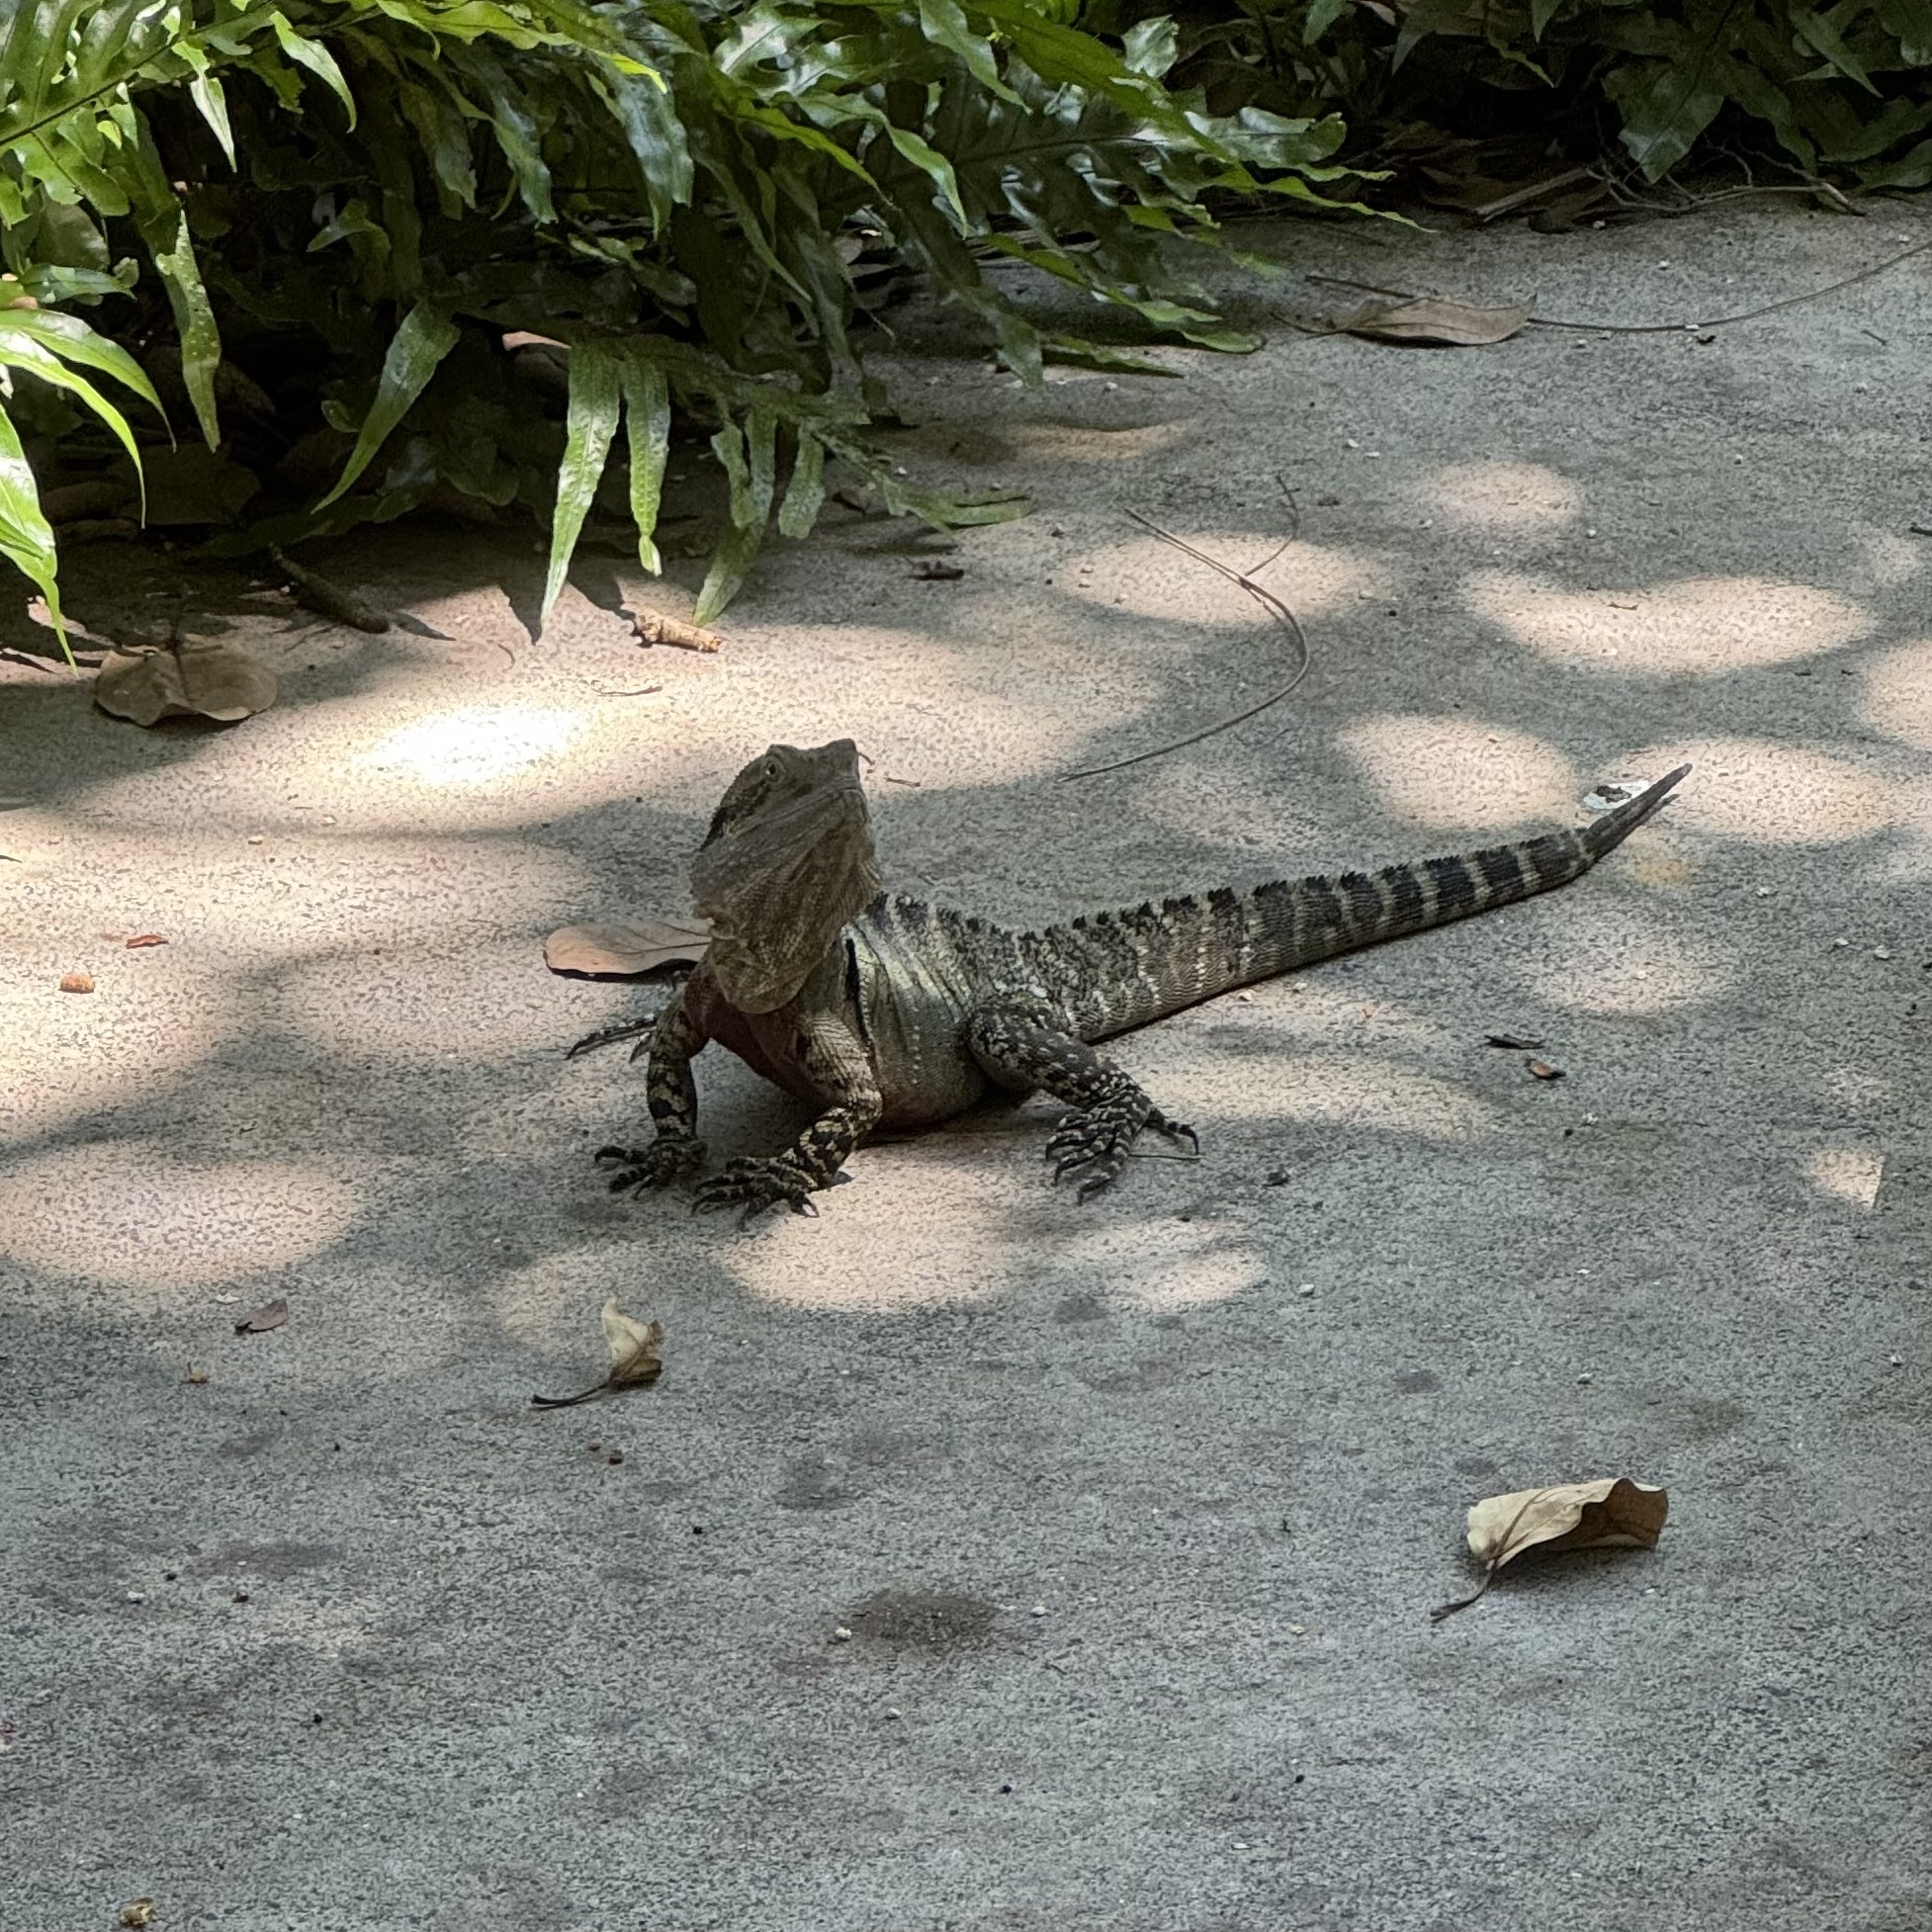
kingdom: Animalia
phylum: Chordata
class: Squamata
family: Agamidae
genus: Intellagama
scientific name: Intellagama lesueurii
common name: Eastern water dragon
